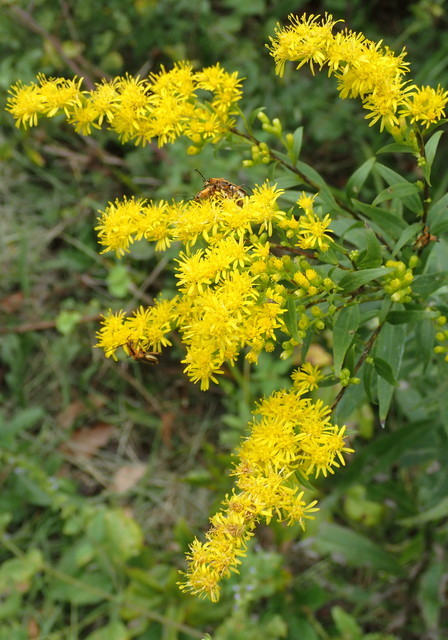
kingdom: Animalia
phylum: Arthropoda
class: Insecta
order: Coleoptera
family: Cantharidae
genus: Chauliognathus
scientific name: Chauliognathus marginatus
